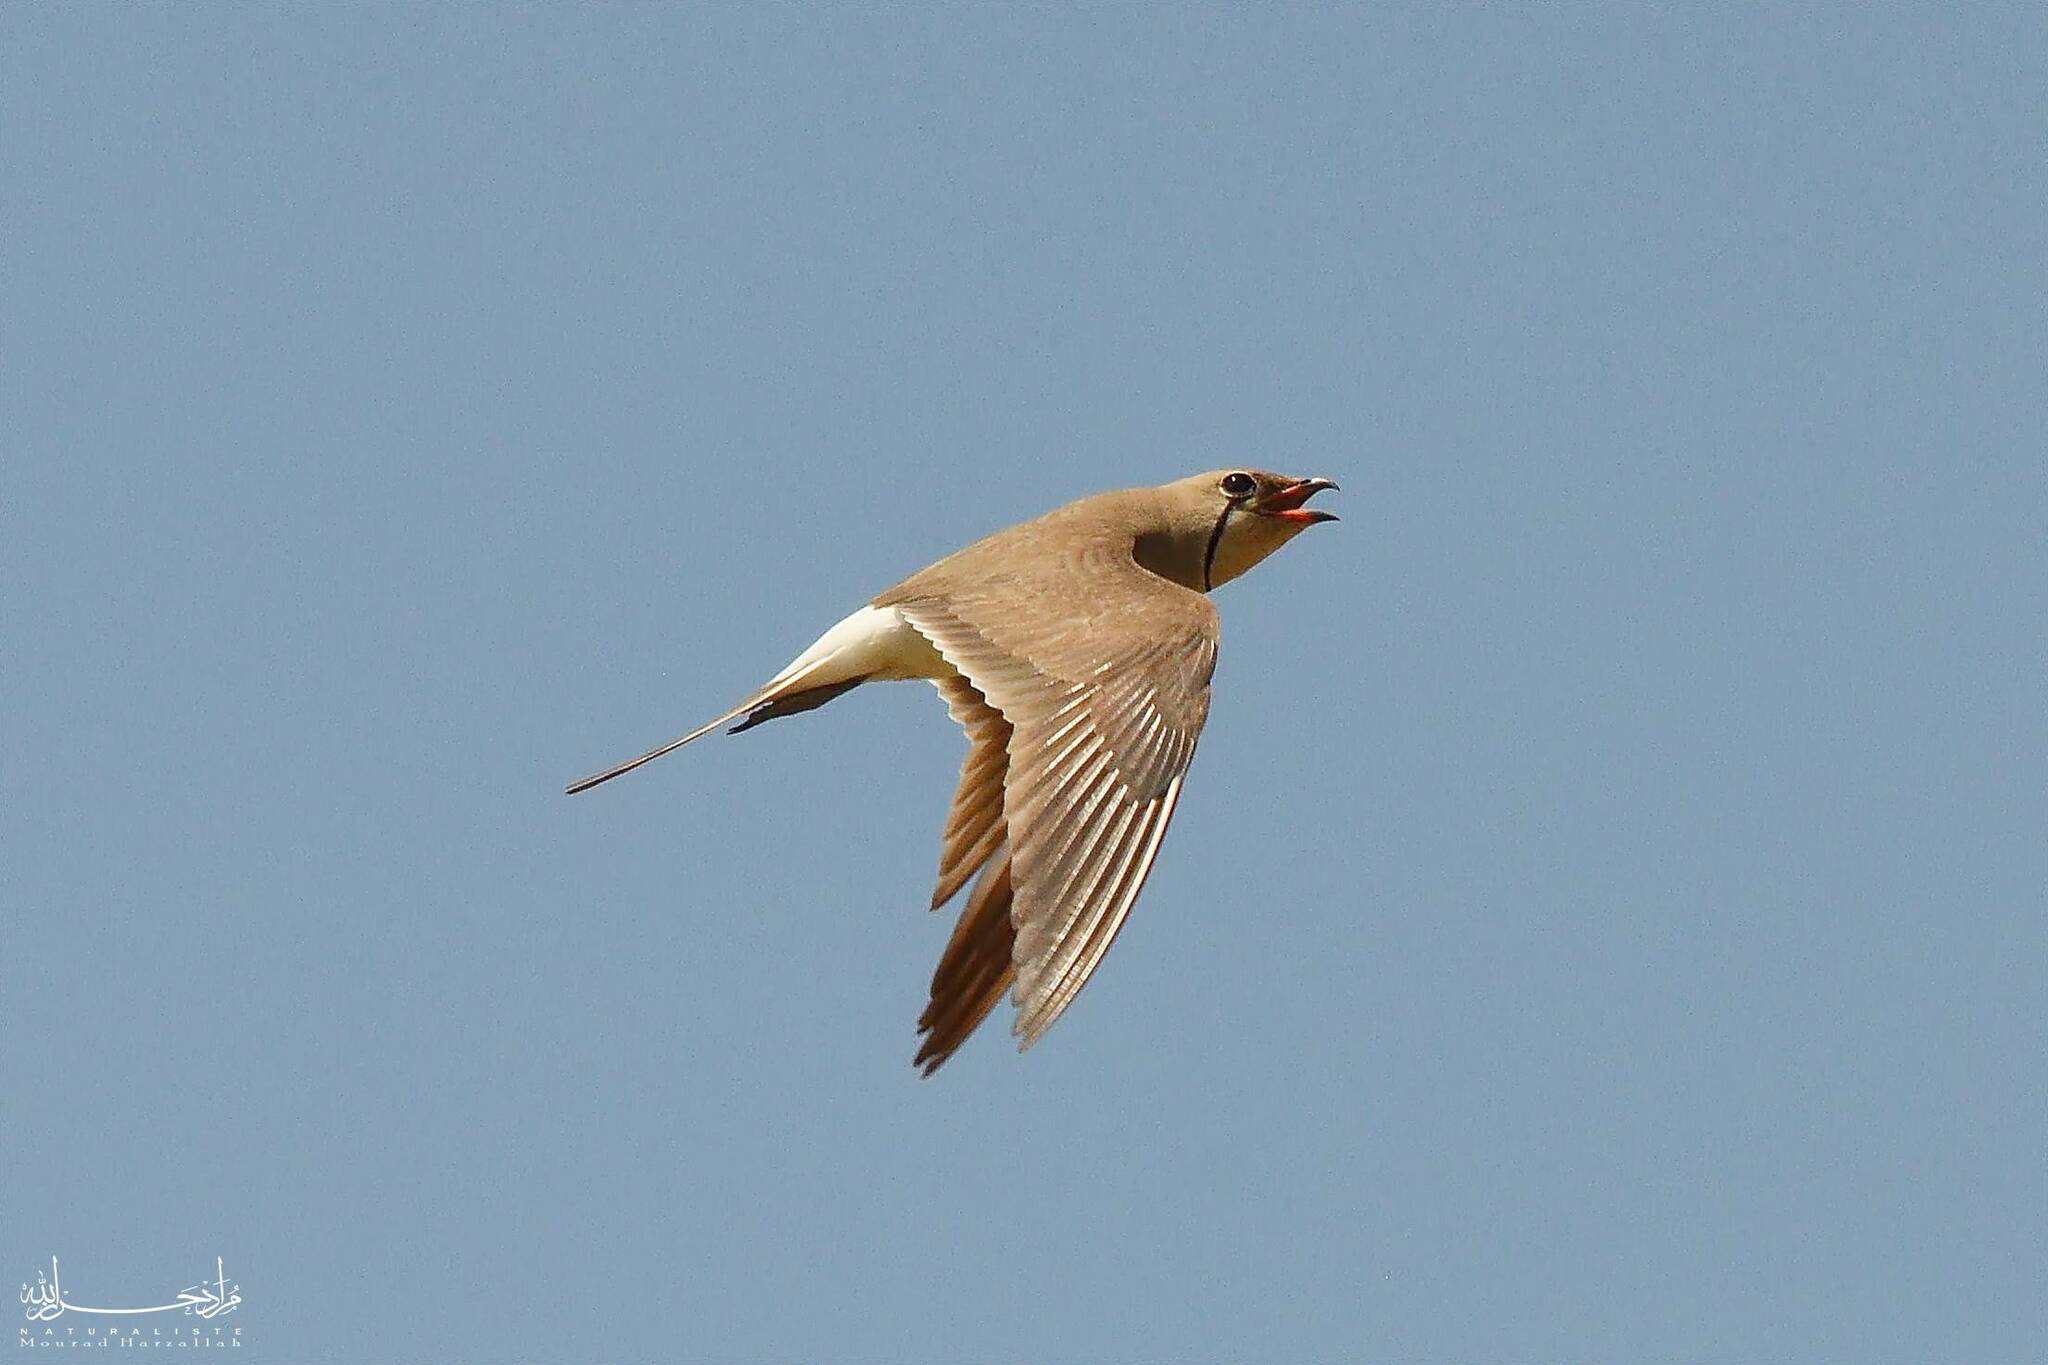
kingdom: Animalia
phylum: Chordata
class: Aves
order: Charadriiformes
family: Glareolidae
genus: Glareola
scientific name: Glareola pratincola
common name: Collared pratincole
